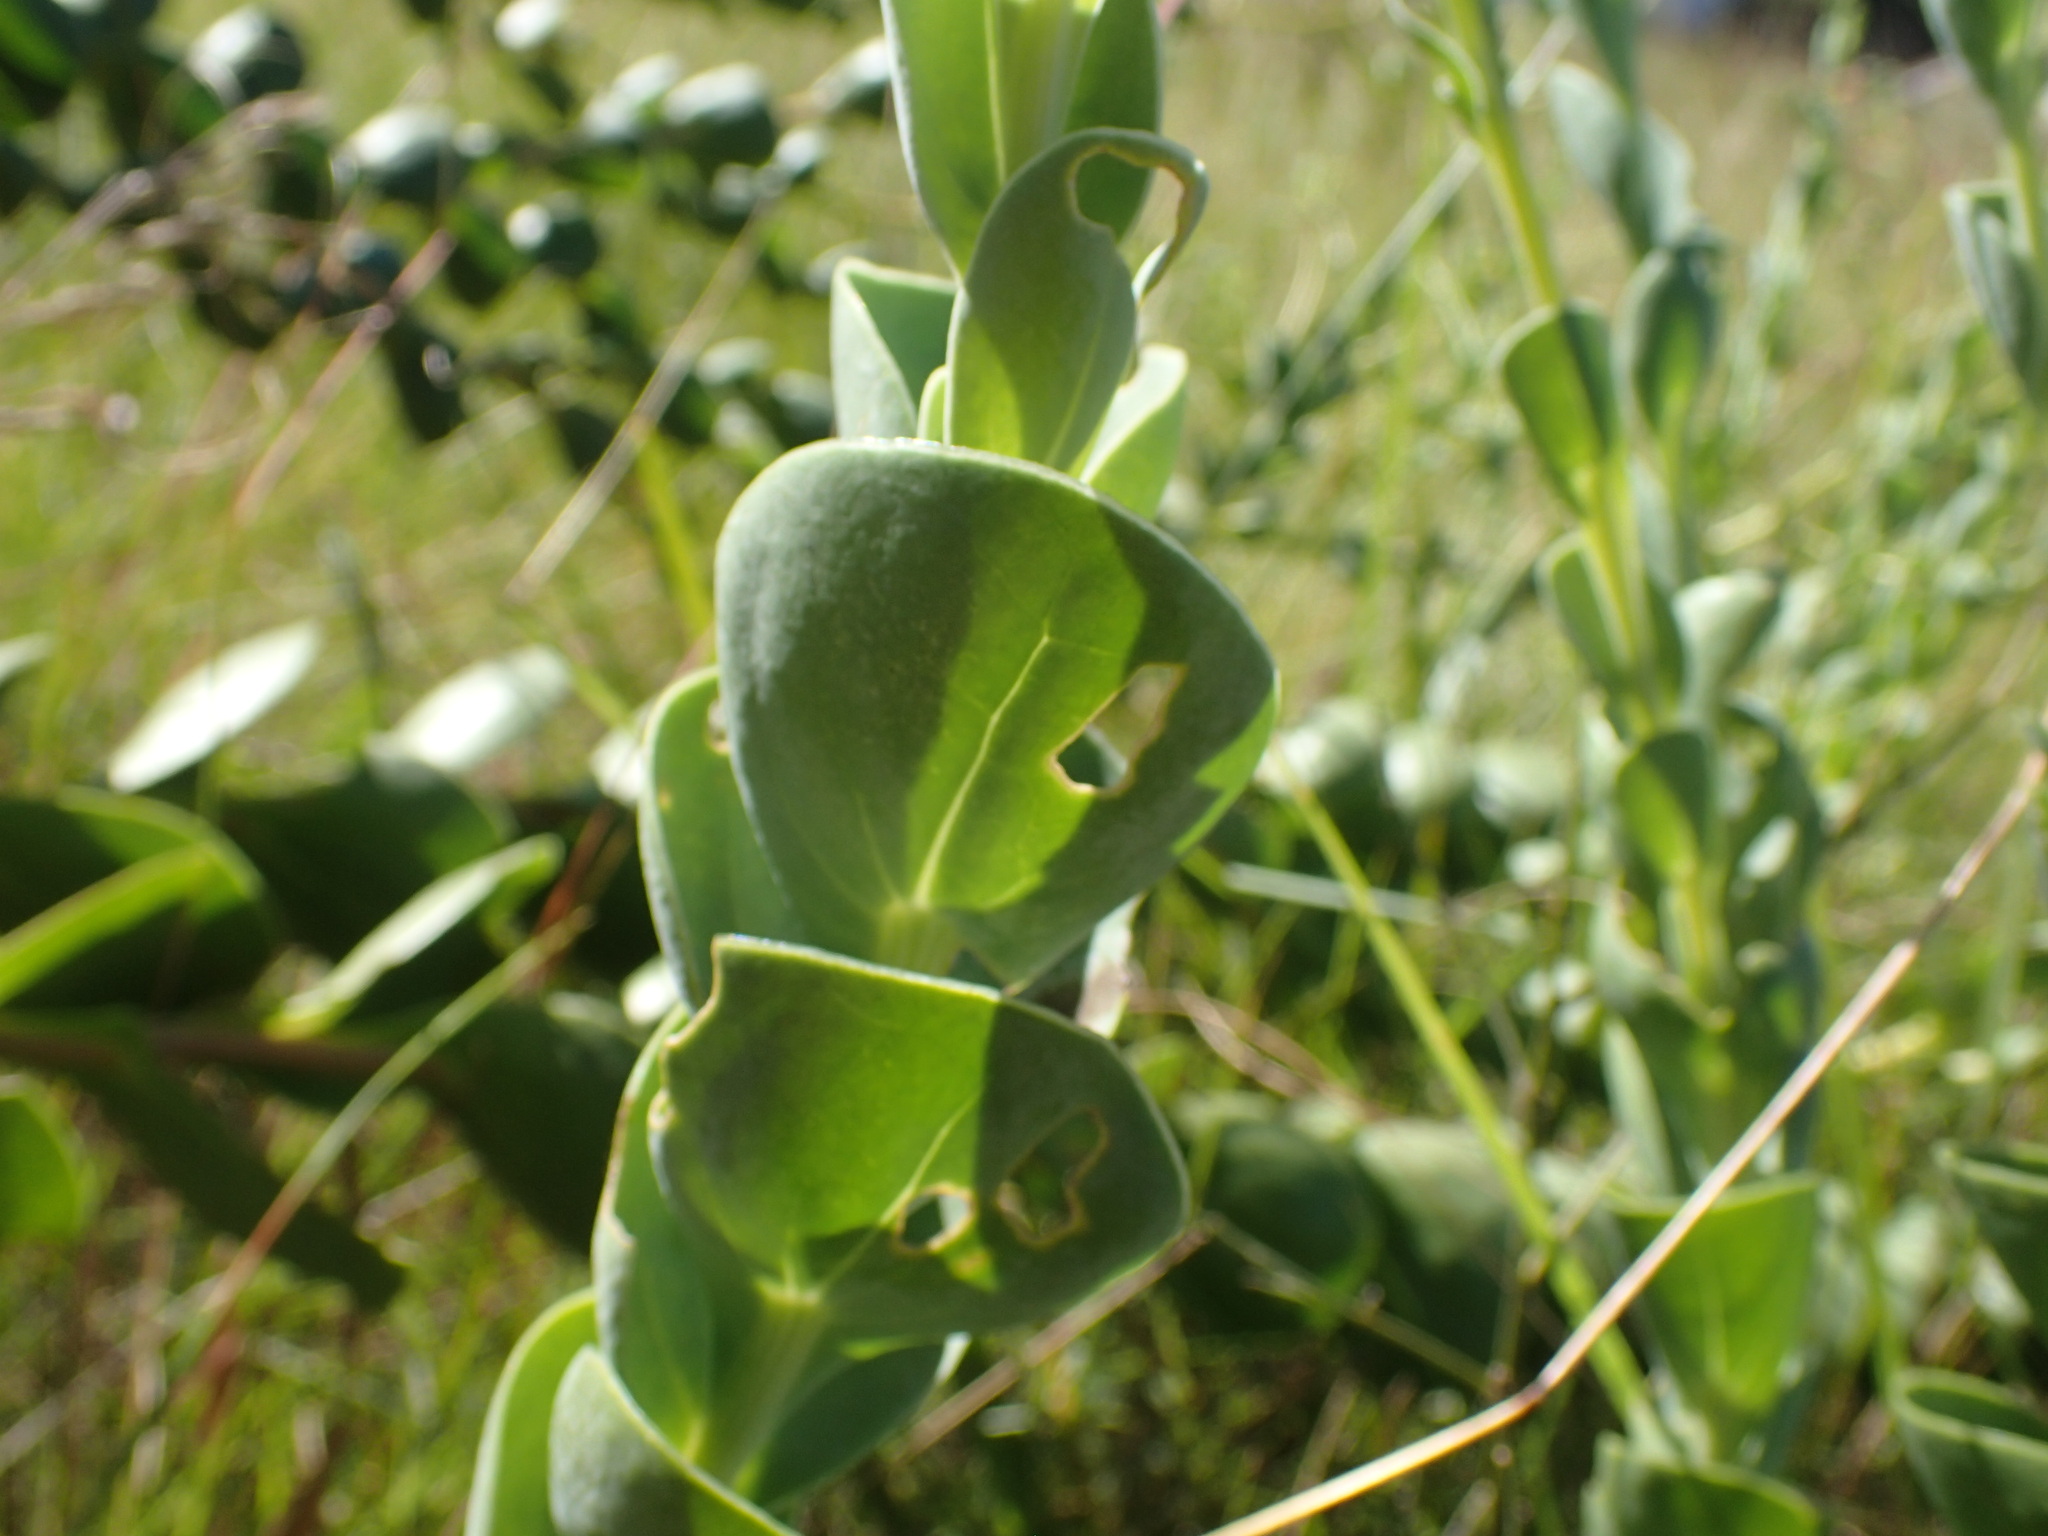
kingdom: Plantae
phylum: Tracheophyta
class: Magnoliopsida
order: Asterales
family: Asteraceae
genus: Lopholaena
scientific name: Lopholaena segmentata
